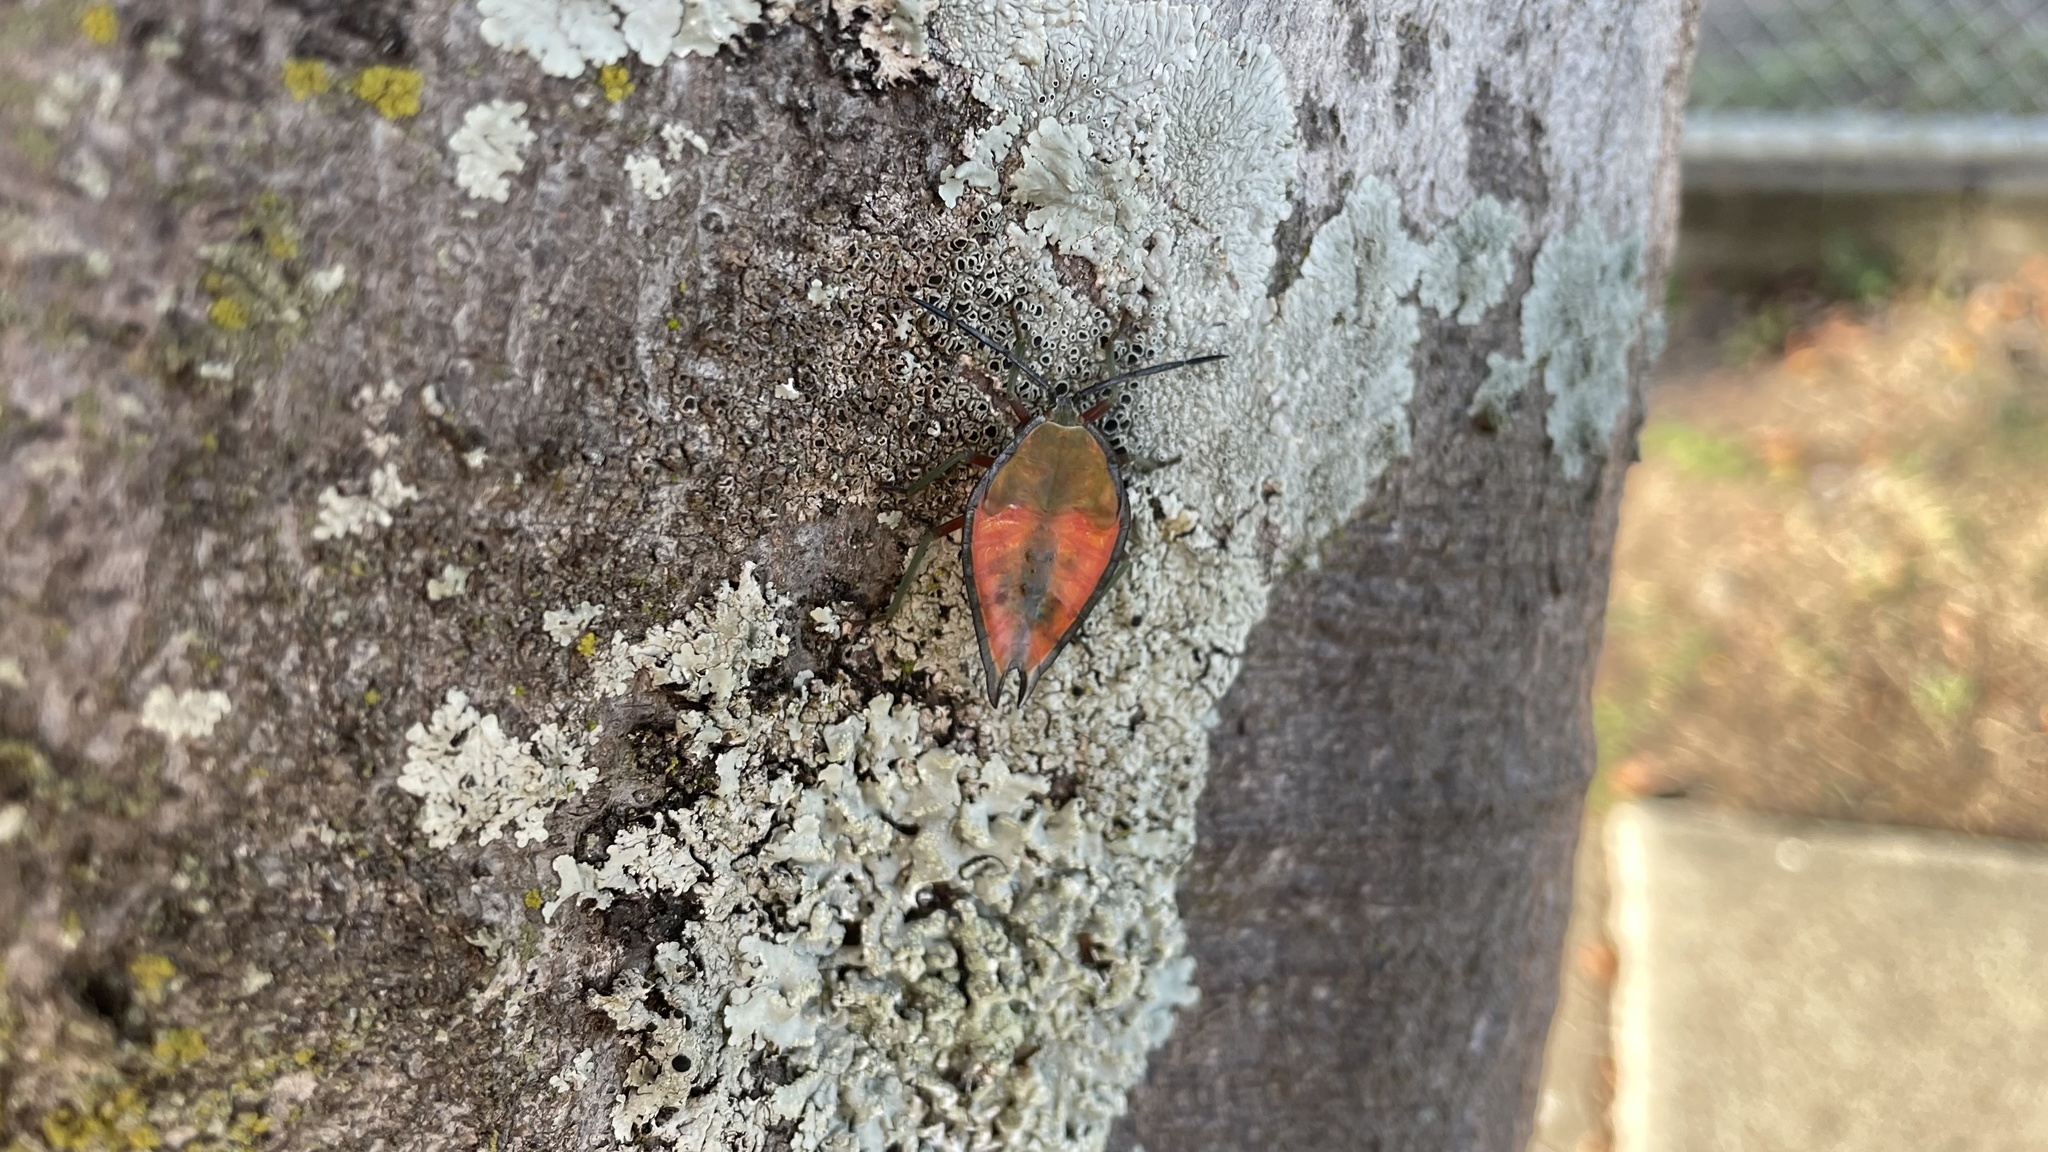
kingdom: Animalia
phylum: Arthropoda
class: Insecta
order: Hemiptera
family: Tessaratomidae
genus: Lyramorpha
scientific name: Lyramorpha rosea
